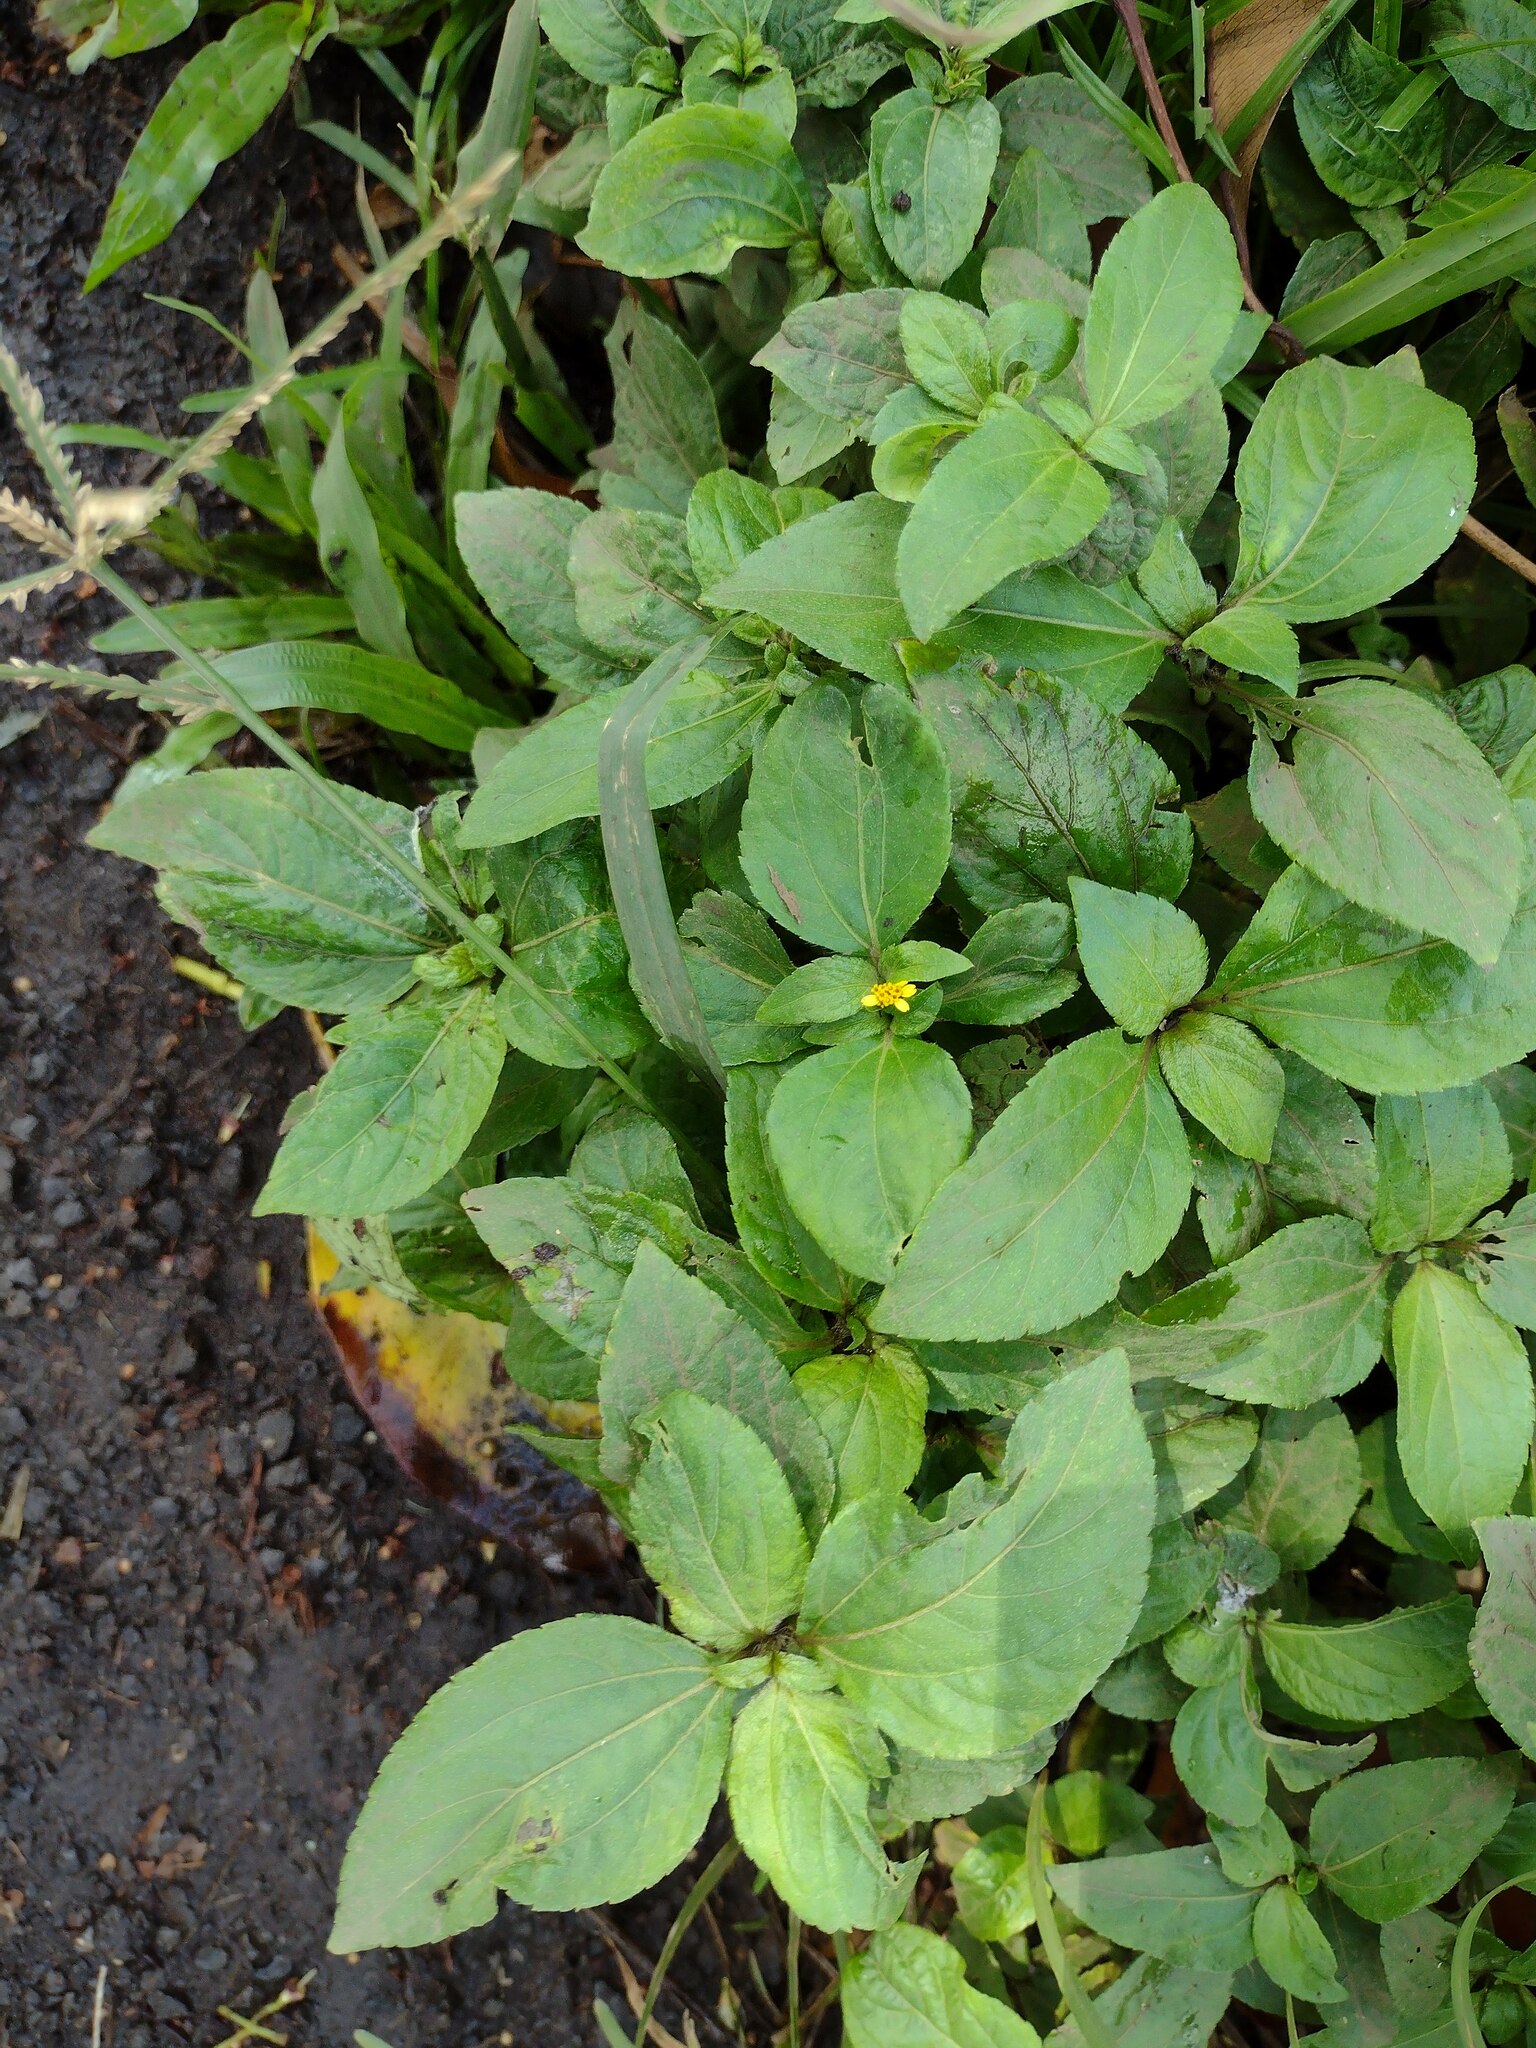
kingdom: Plantae
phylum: Tracheophyta
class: Magnoliopsida
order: Asterales
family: Asteraceae
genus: Synedrella
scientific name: Synedrella nodiflora
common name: Nodeweed
